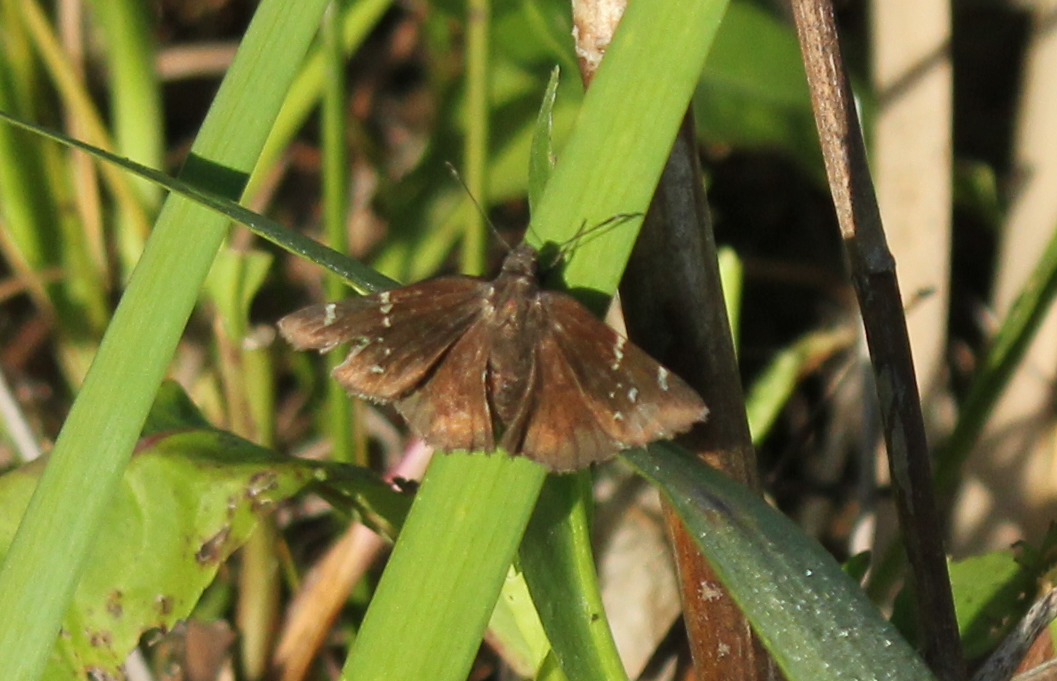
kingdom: Animalia
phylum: Arthropoda
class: Insecta
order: Lepidoptera
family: Hesperiidae
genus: Thorybes
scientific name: Thorybes pylades
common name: Northern cloudywing
